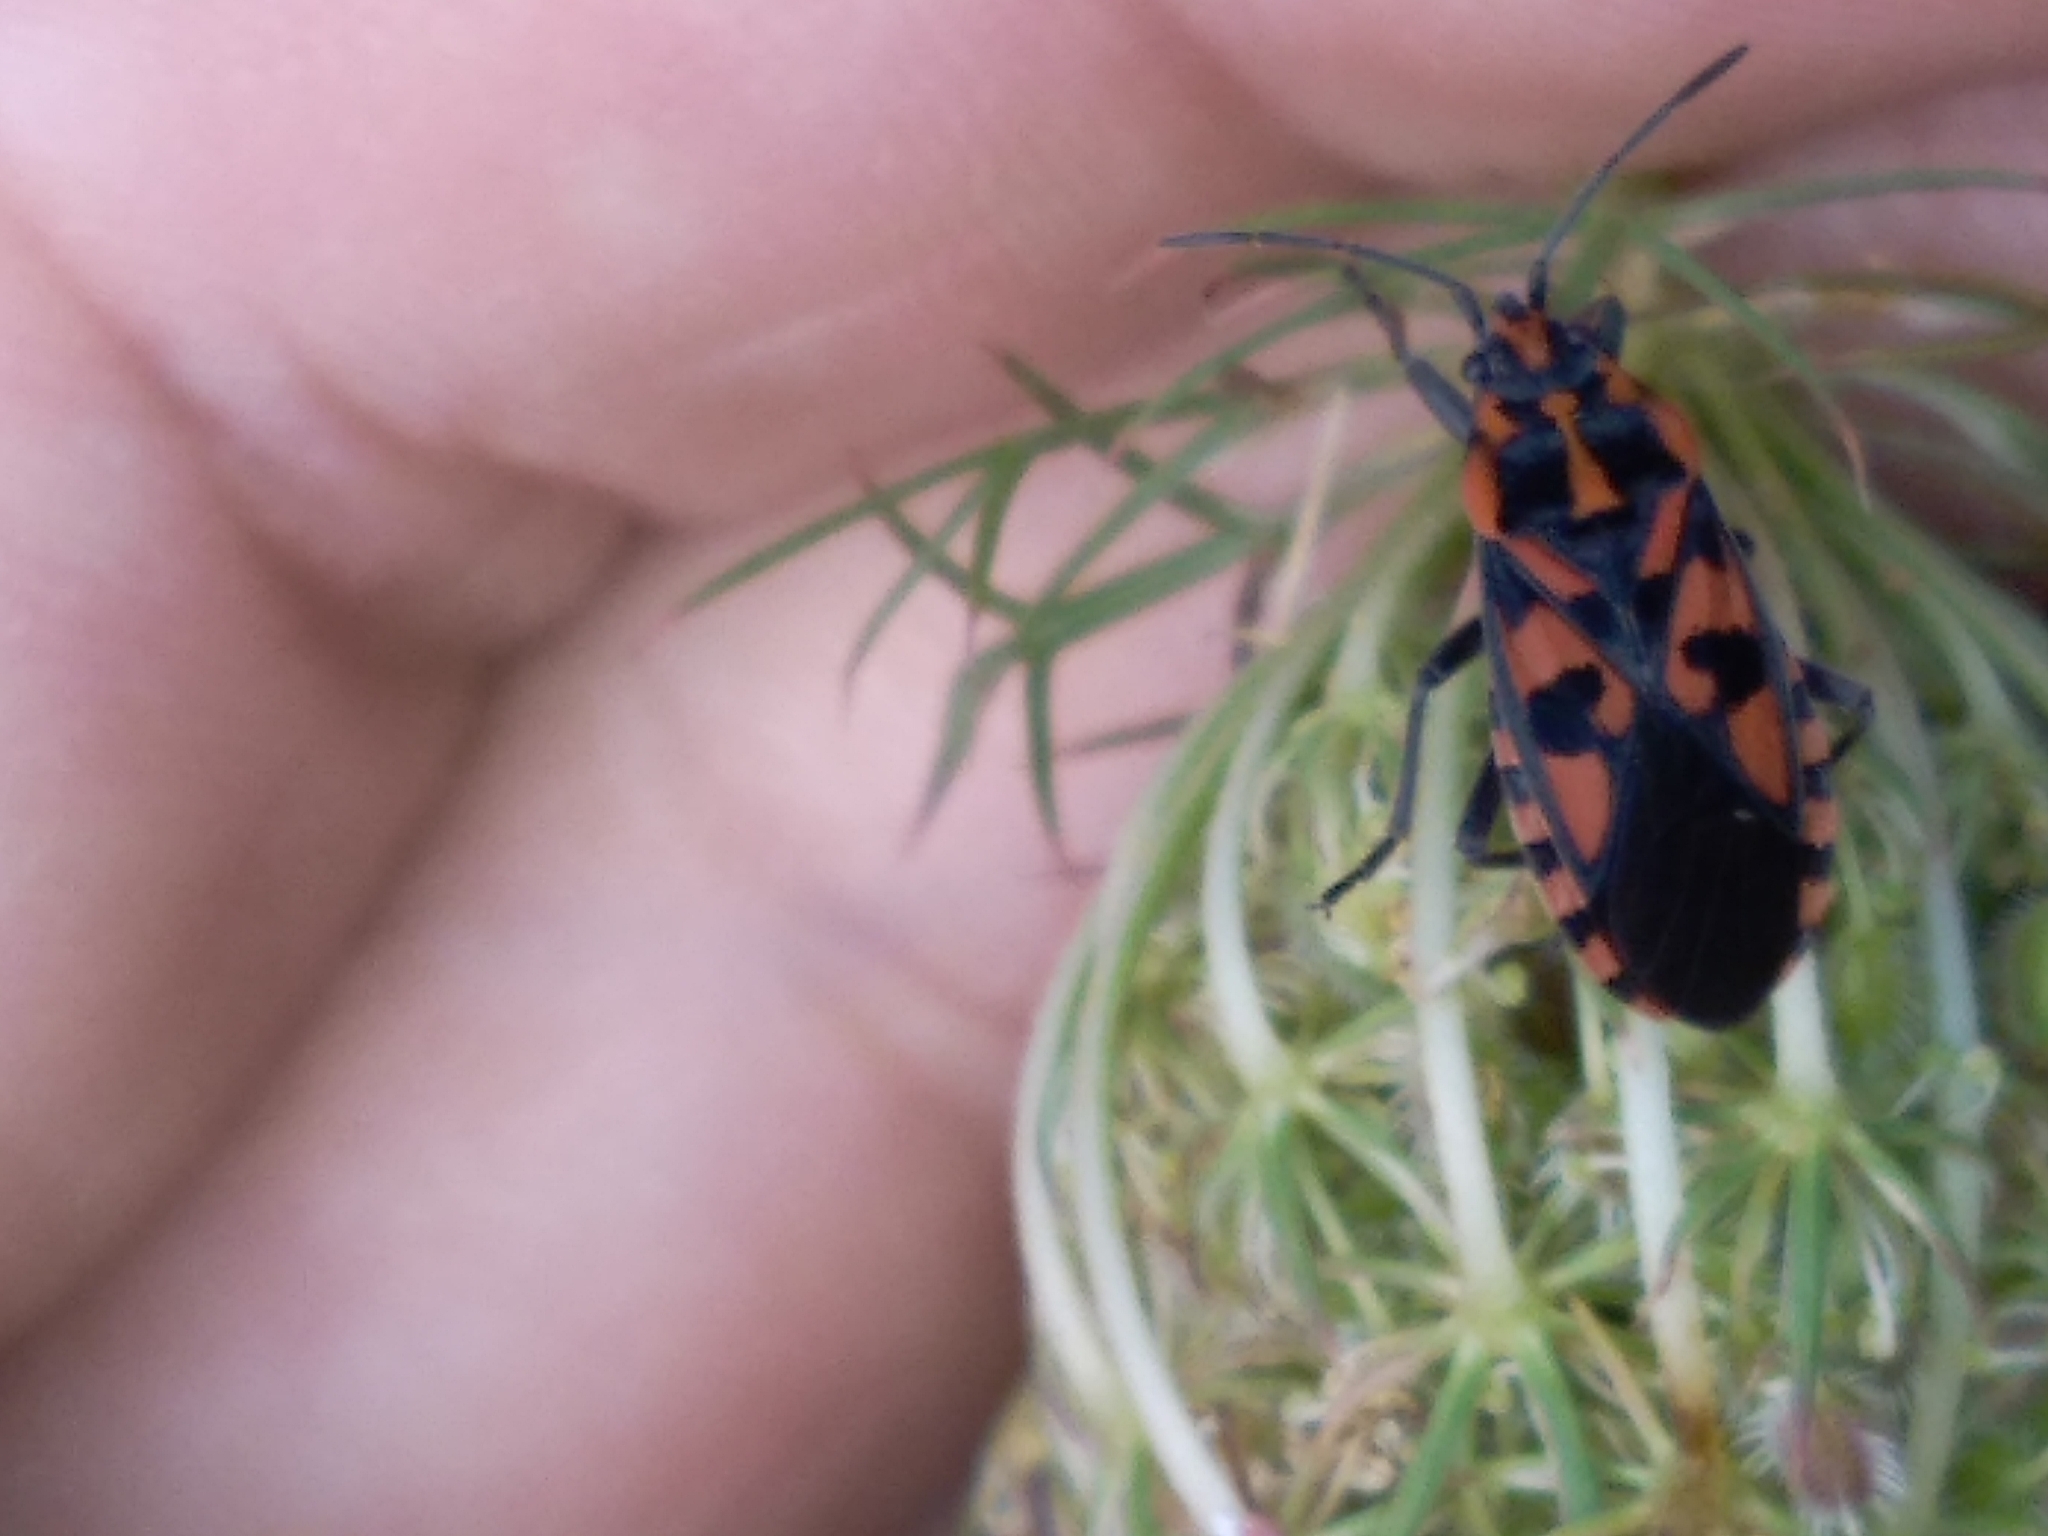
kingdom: Animalia
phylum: Arthropoda
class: Insecta
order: Hemiptera
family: Lygaeidae
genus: Spilostethus
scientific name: Spilostethus saxatilis
